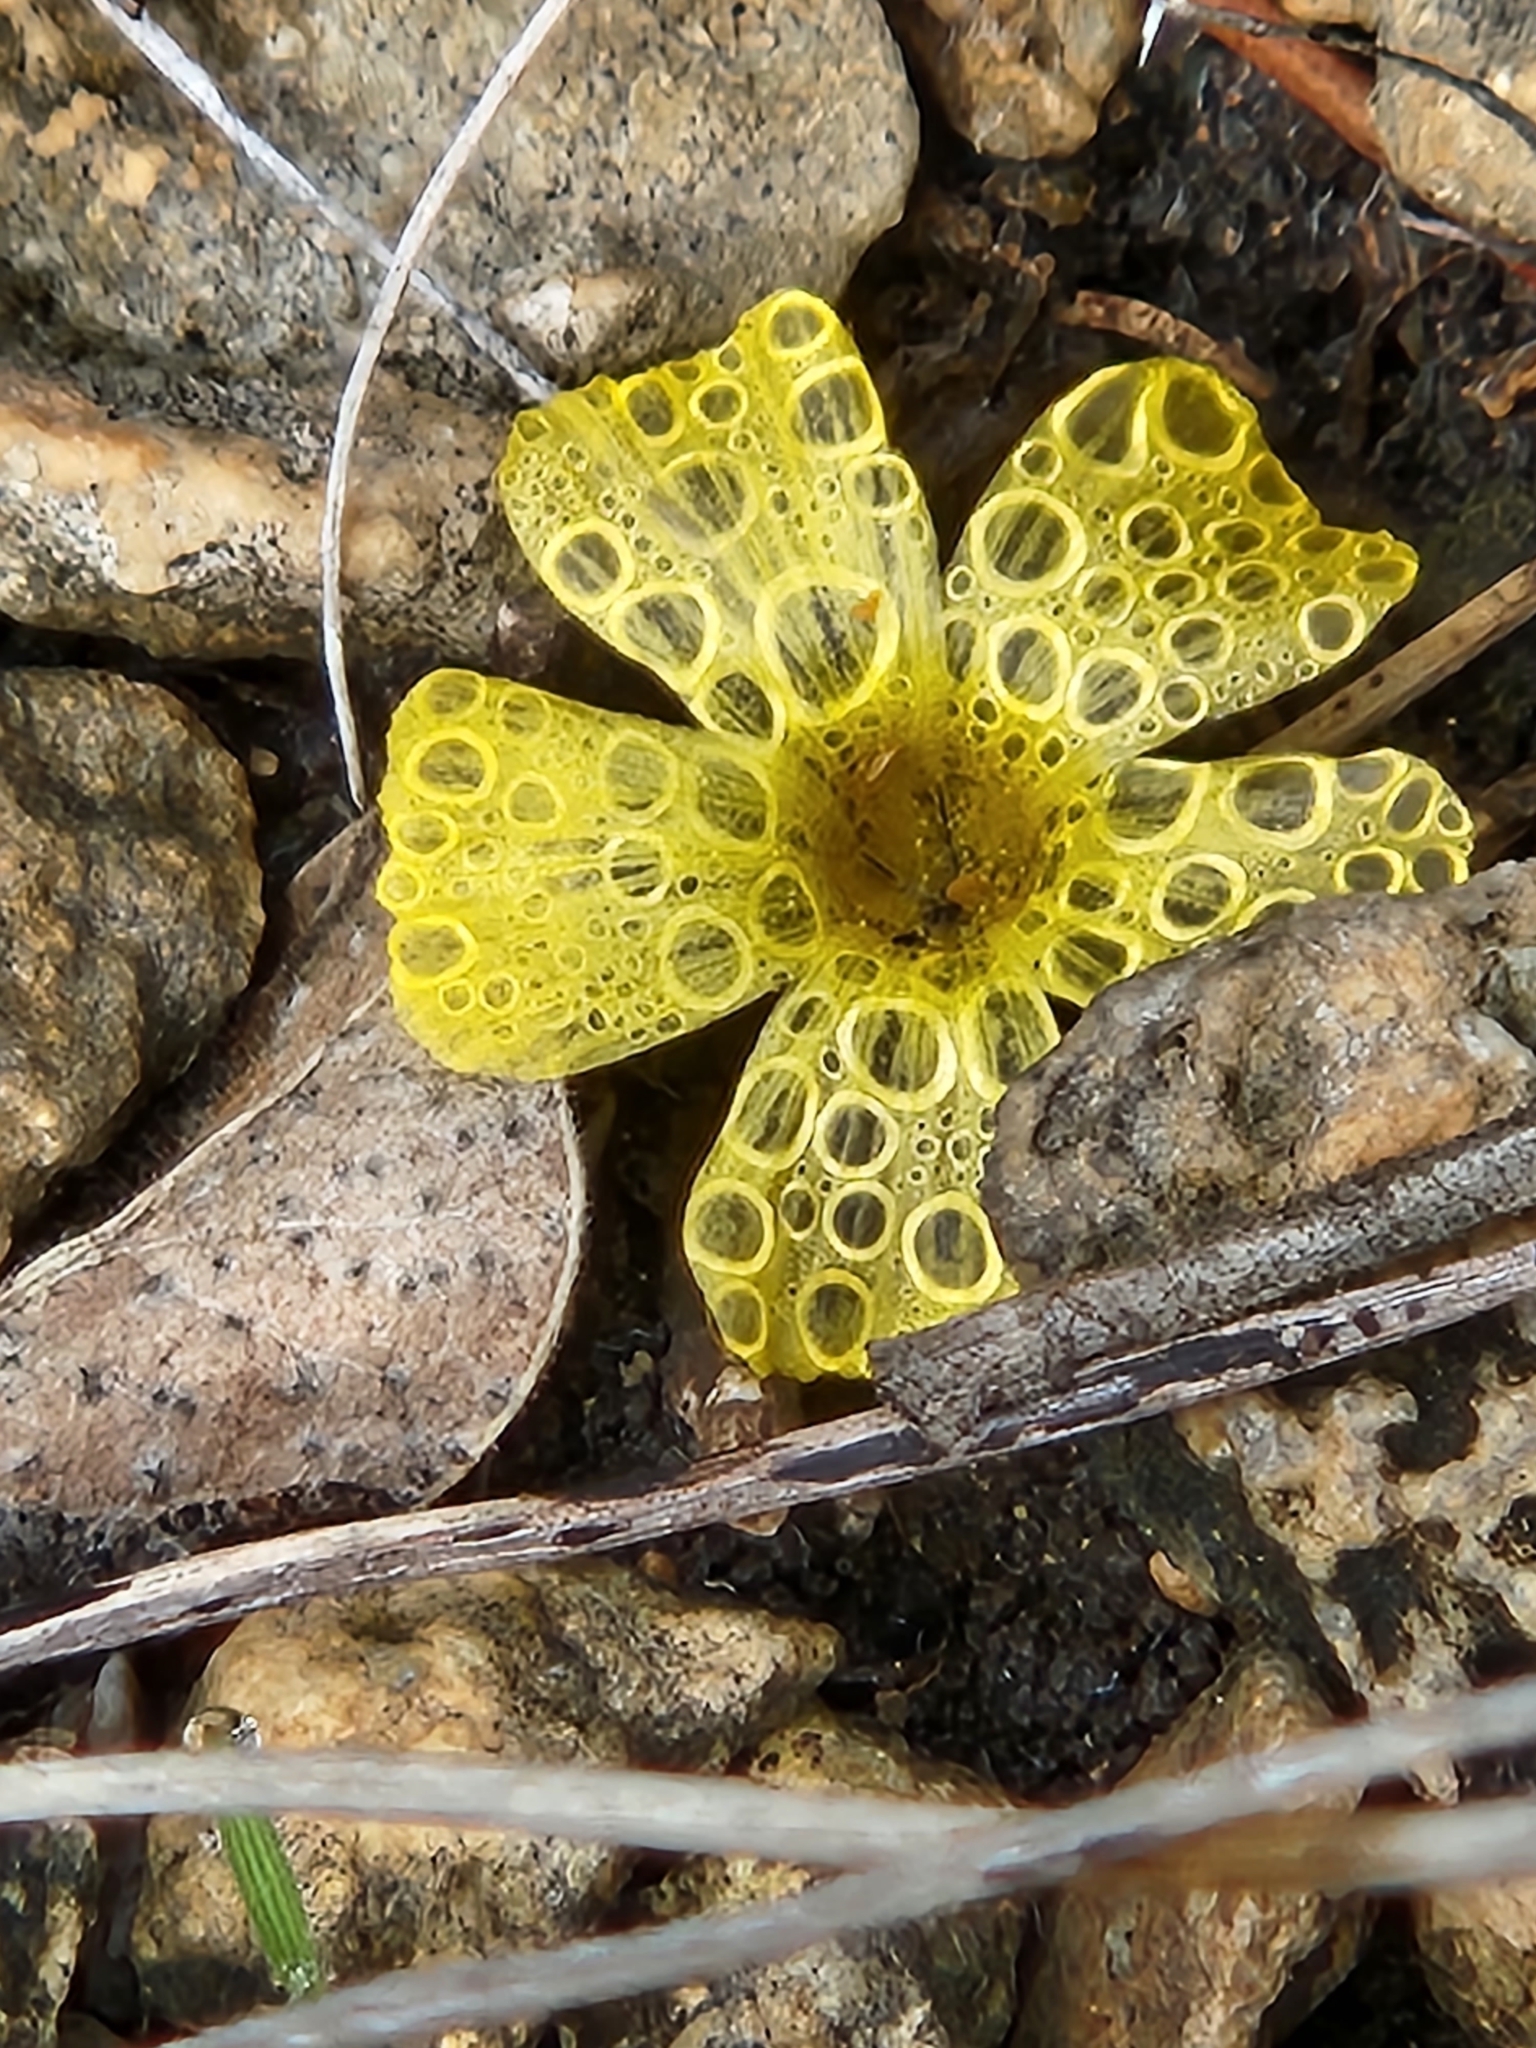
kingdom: Plantae
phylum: Tracheophyta
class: Magnoliopsida
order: Malpighiales
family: Linaceae
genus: Linum
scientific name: Linum rupestre
